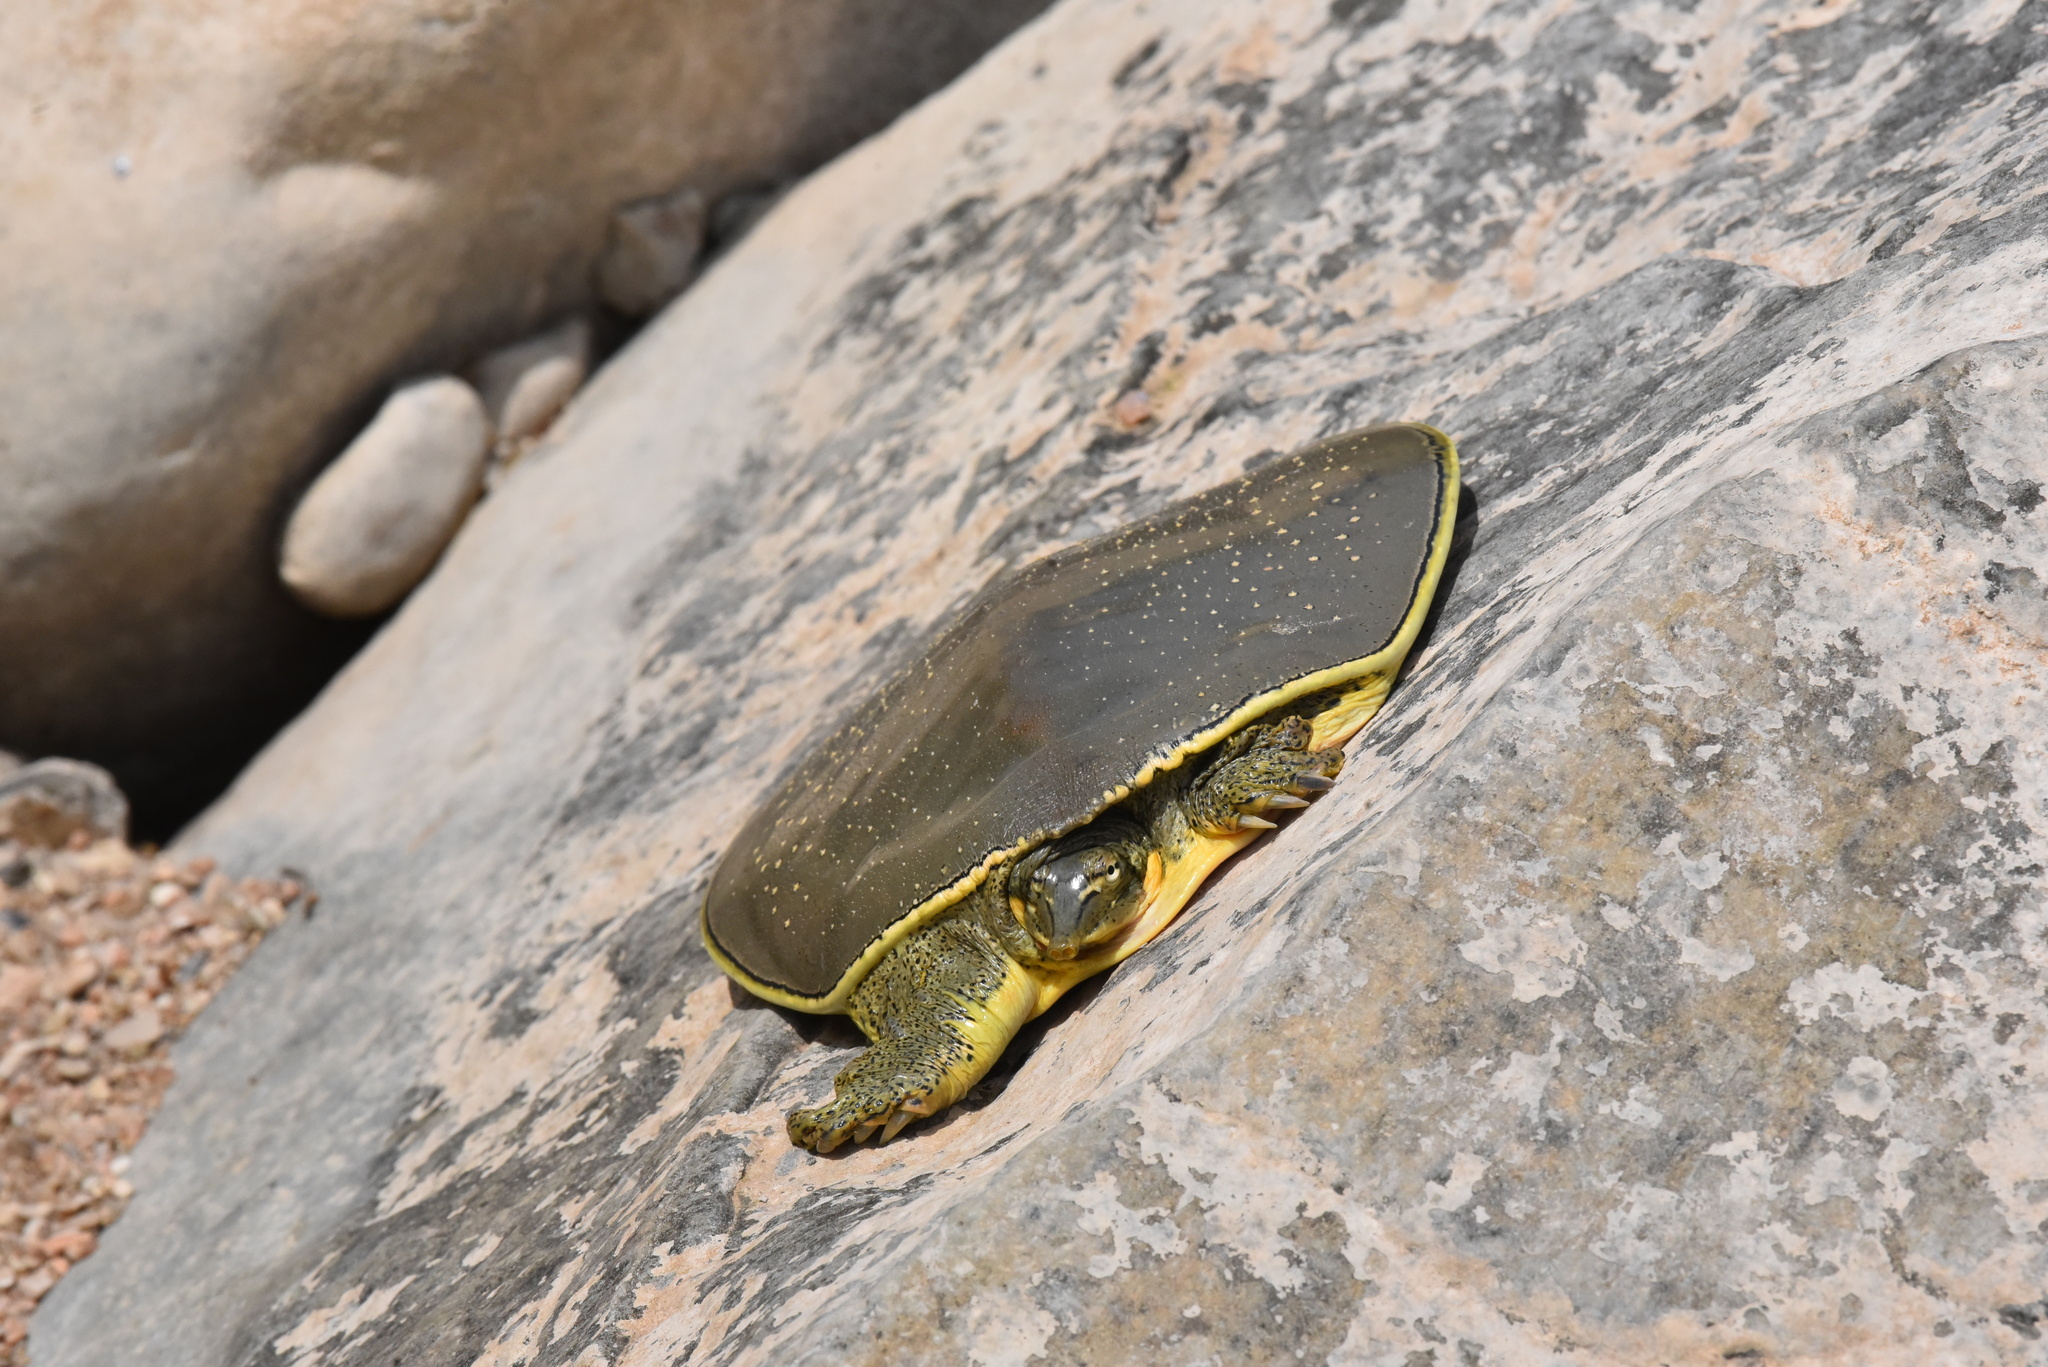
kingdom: Animalia
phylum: Chordata
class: Testudines
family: Trionychidae
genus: Apalone
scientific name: Apalone spinifera
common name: Spiny softshell turtle
